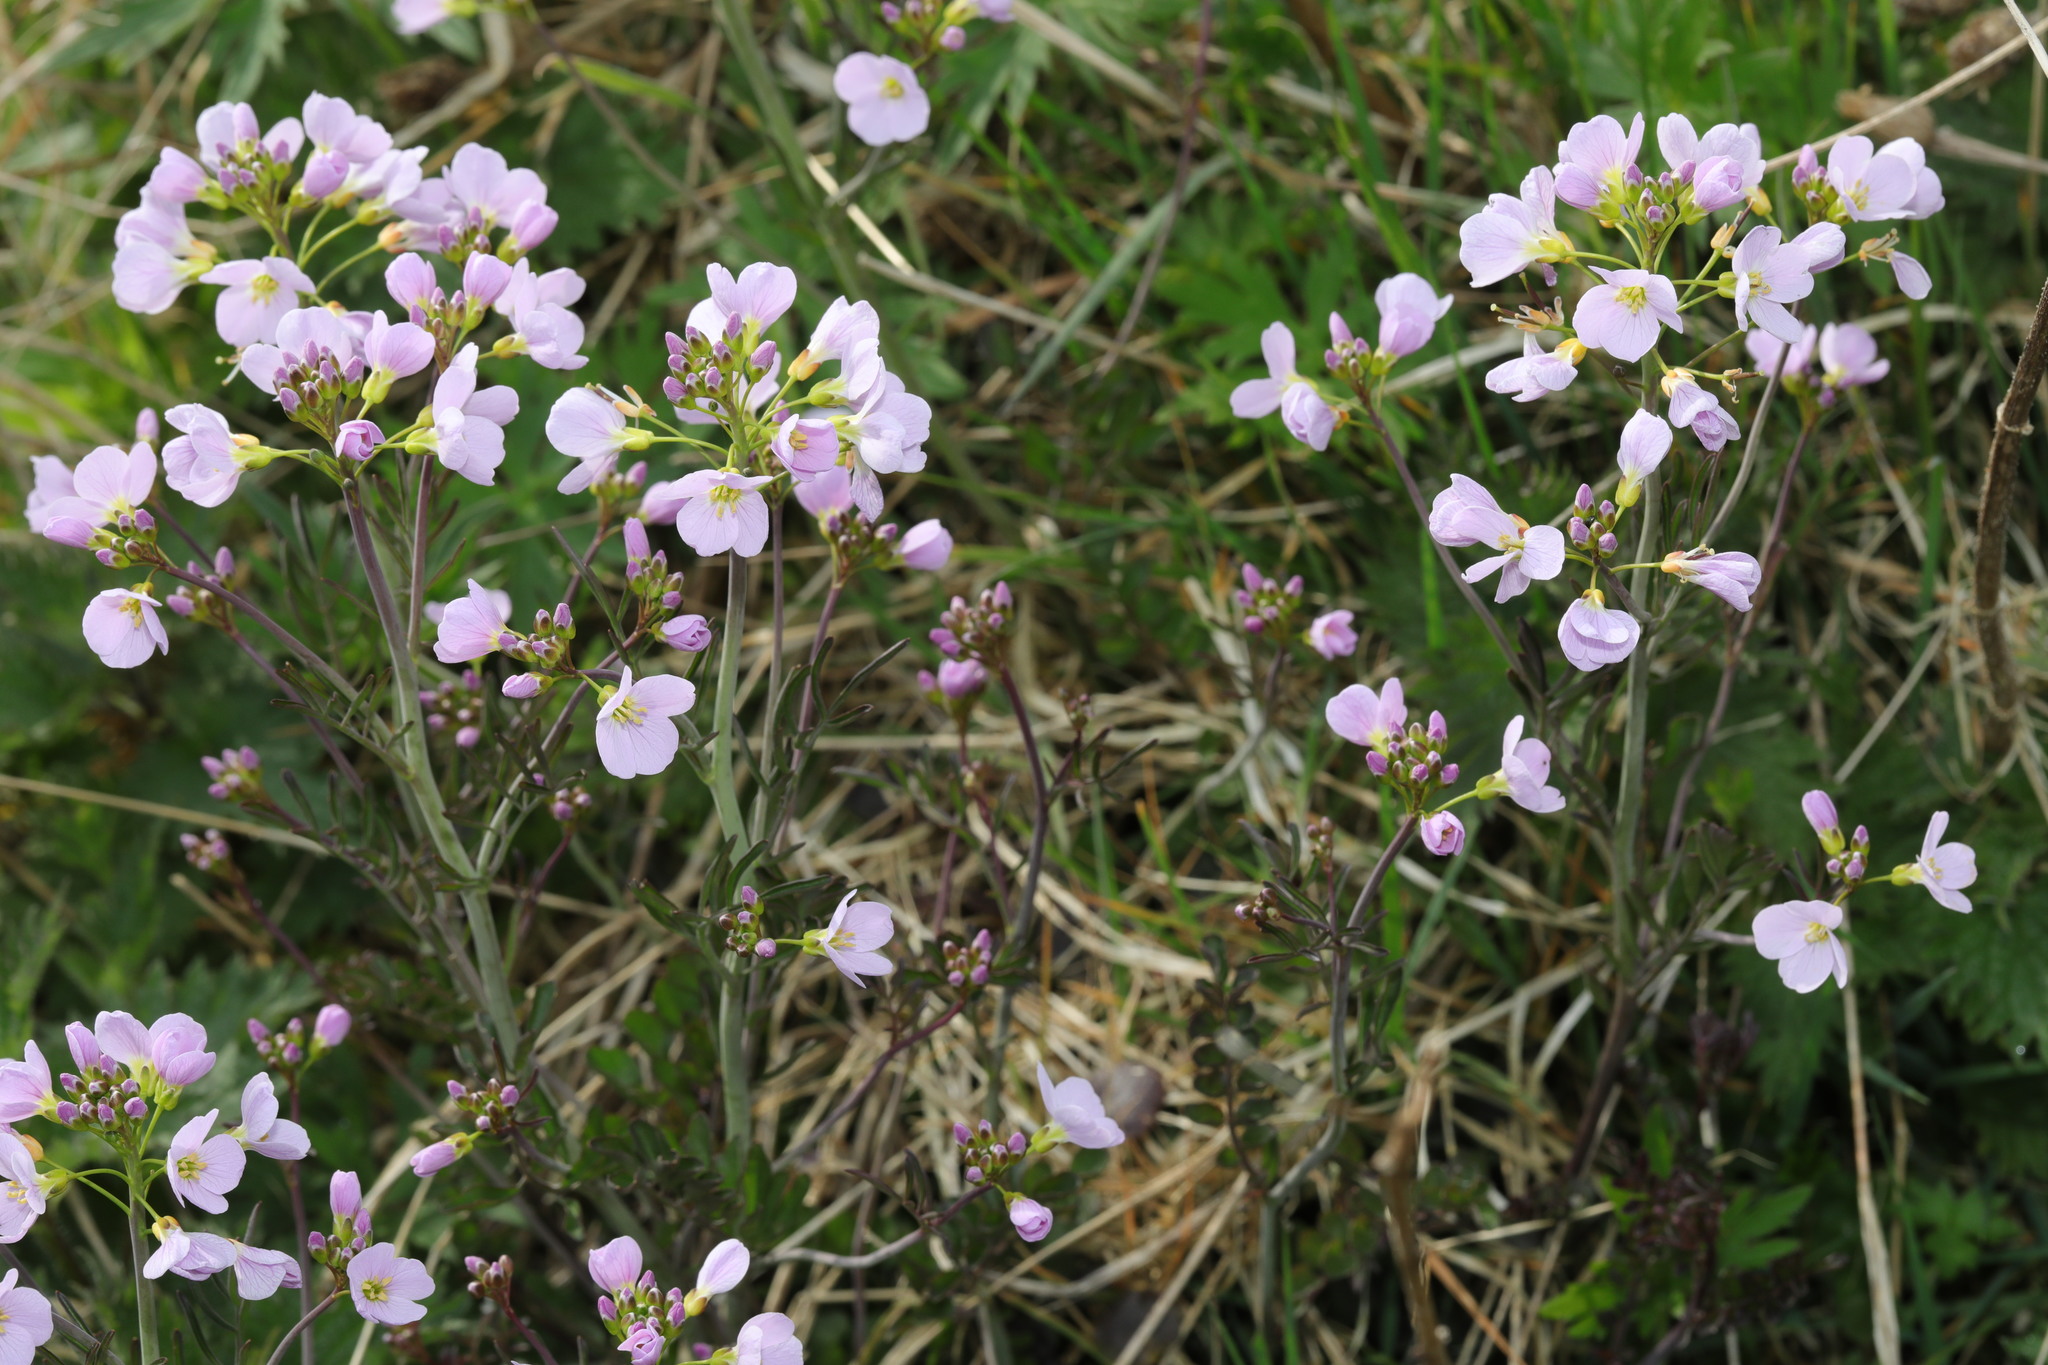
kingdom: Plantae
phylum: Tracheophyta
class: Magnoliopsida
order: Brassicales
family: Brassicaceae
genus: Cardamine
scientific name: Cardamine pratensis
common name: Cuckoo flower
